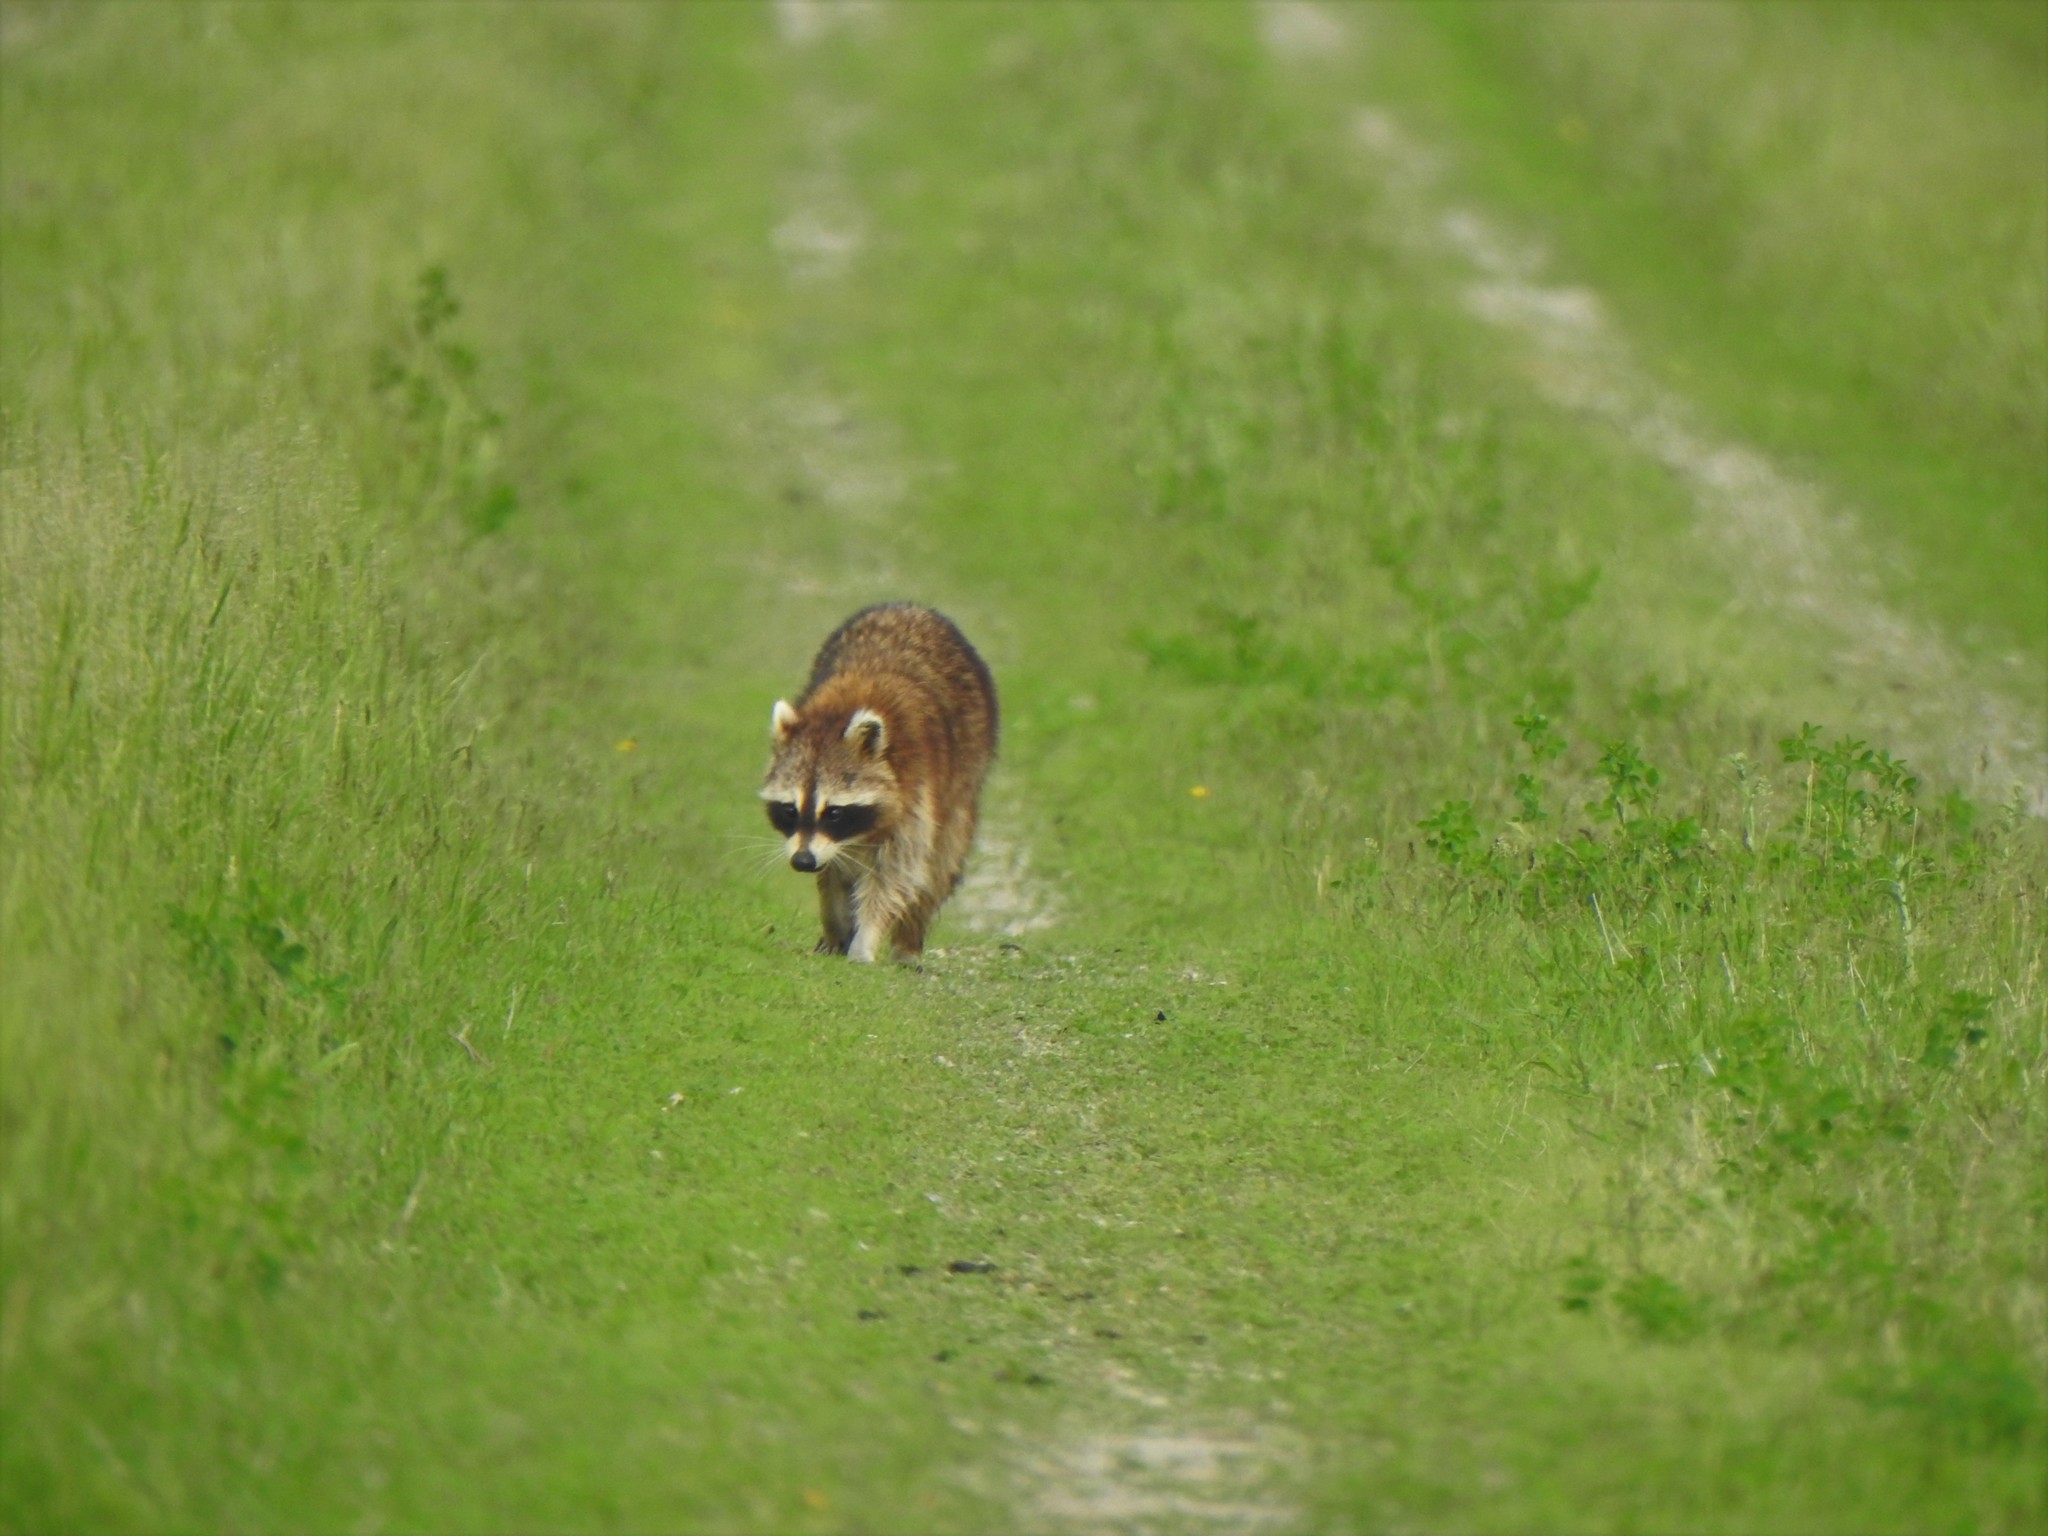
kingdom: Animalia
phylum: Chordata
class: Mammalia
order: Carnivora
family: Procyonidae
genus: Procyon
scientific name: Procyon lotor
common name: Raccoon
